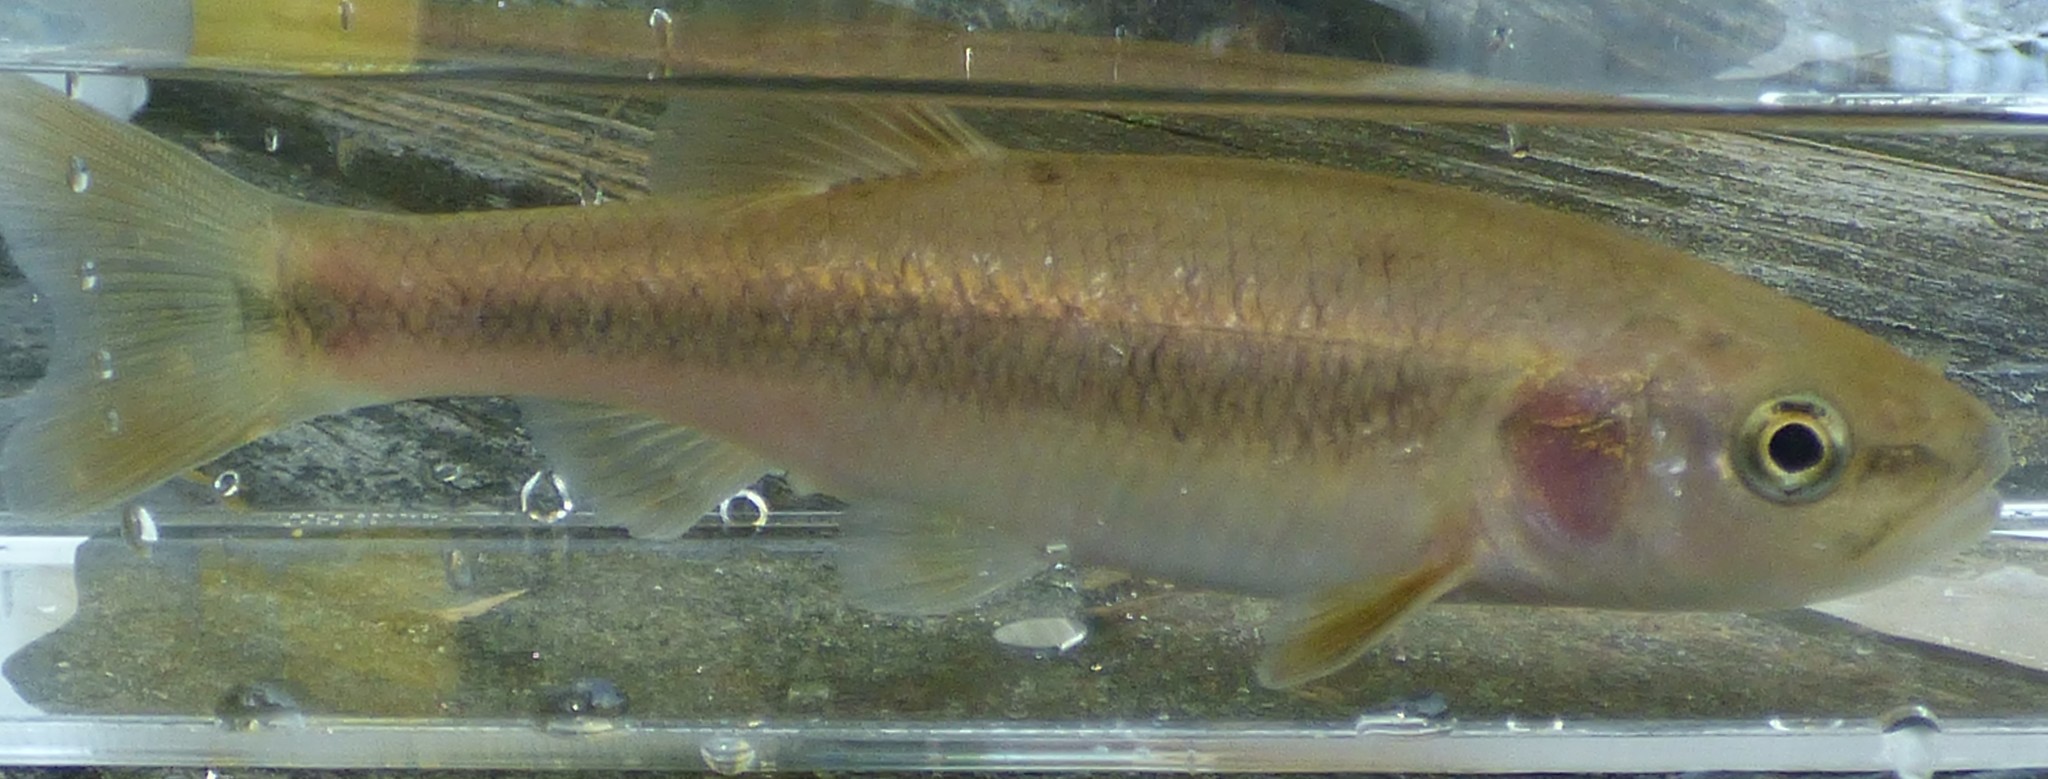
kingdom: Animalia
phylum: Chordata
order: Cypriniformes
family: Cyprinidae
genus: Semotilus
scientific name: Semotilus atromaculatus
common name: Creek chub
